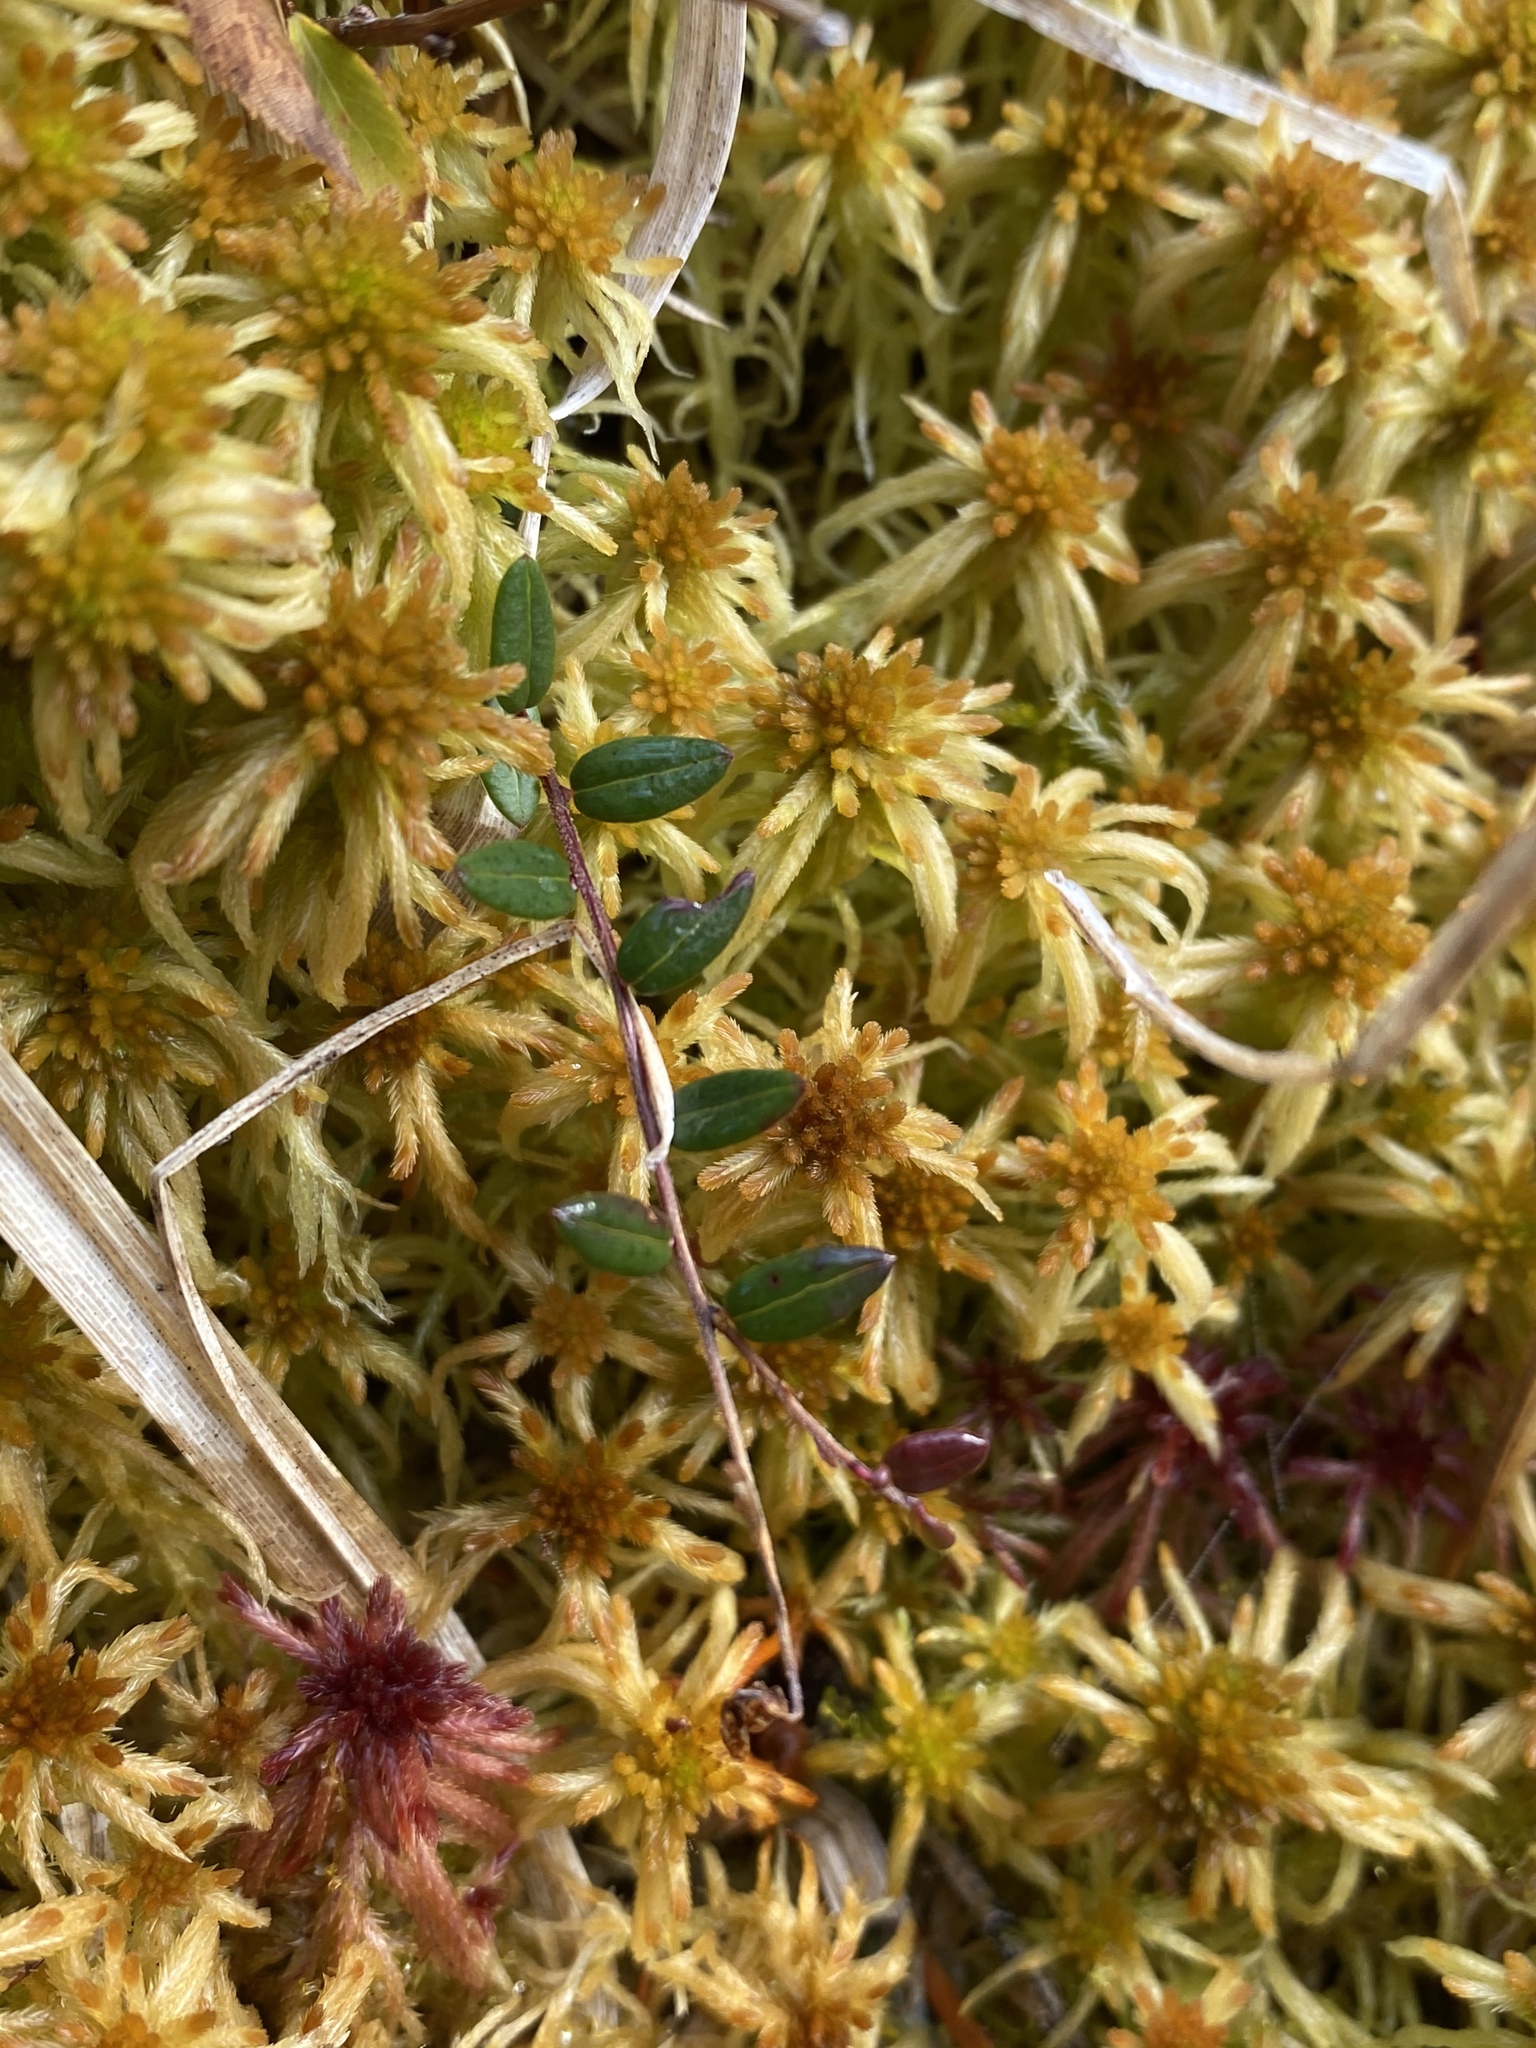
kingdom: Plantae
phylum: Tracheophyta
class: Magnoliopsida
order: Ericales
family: Ericaceae
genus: Vaccinium
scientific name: Vaccinium oxycoccos
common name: Cranberry
